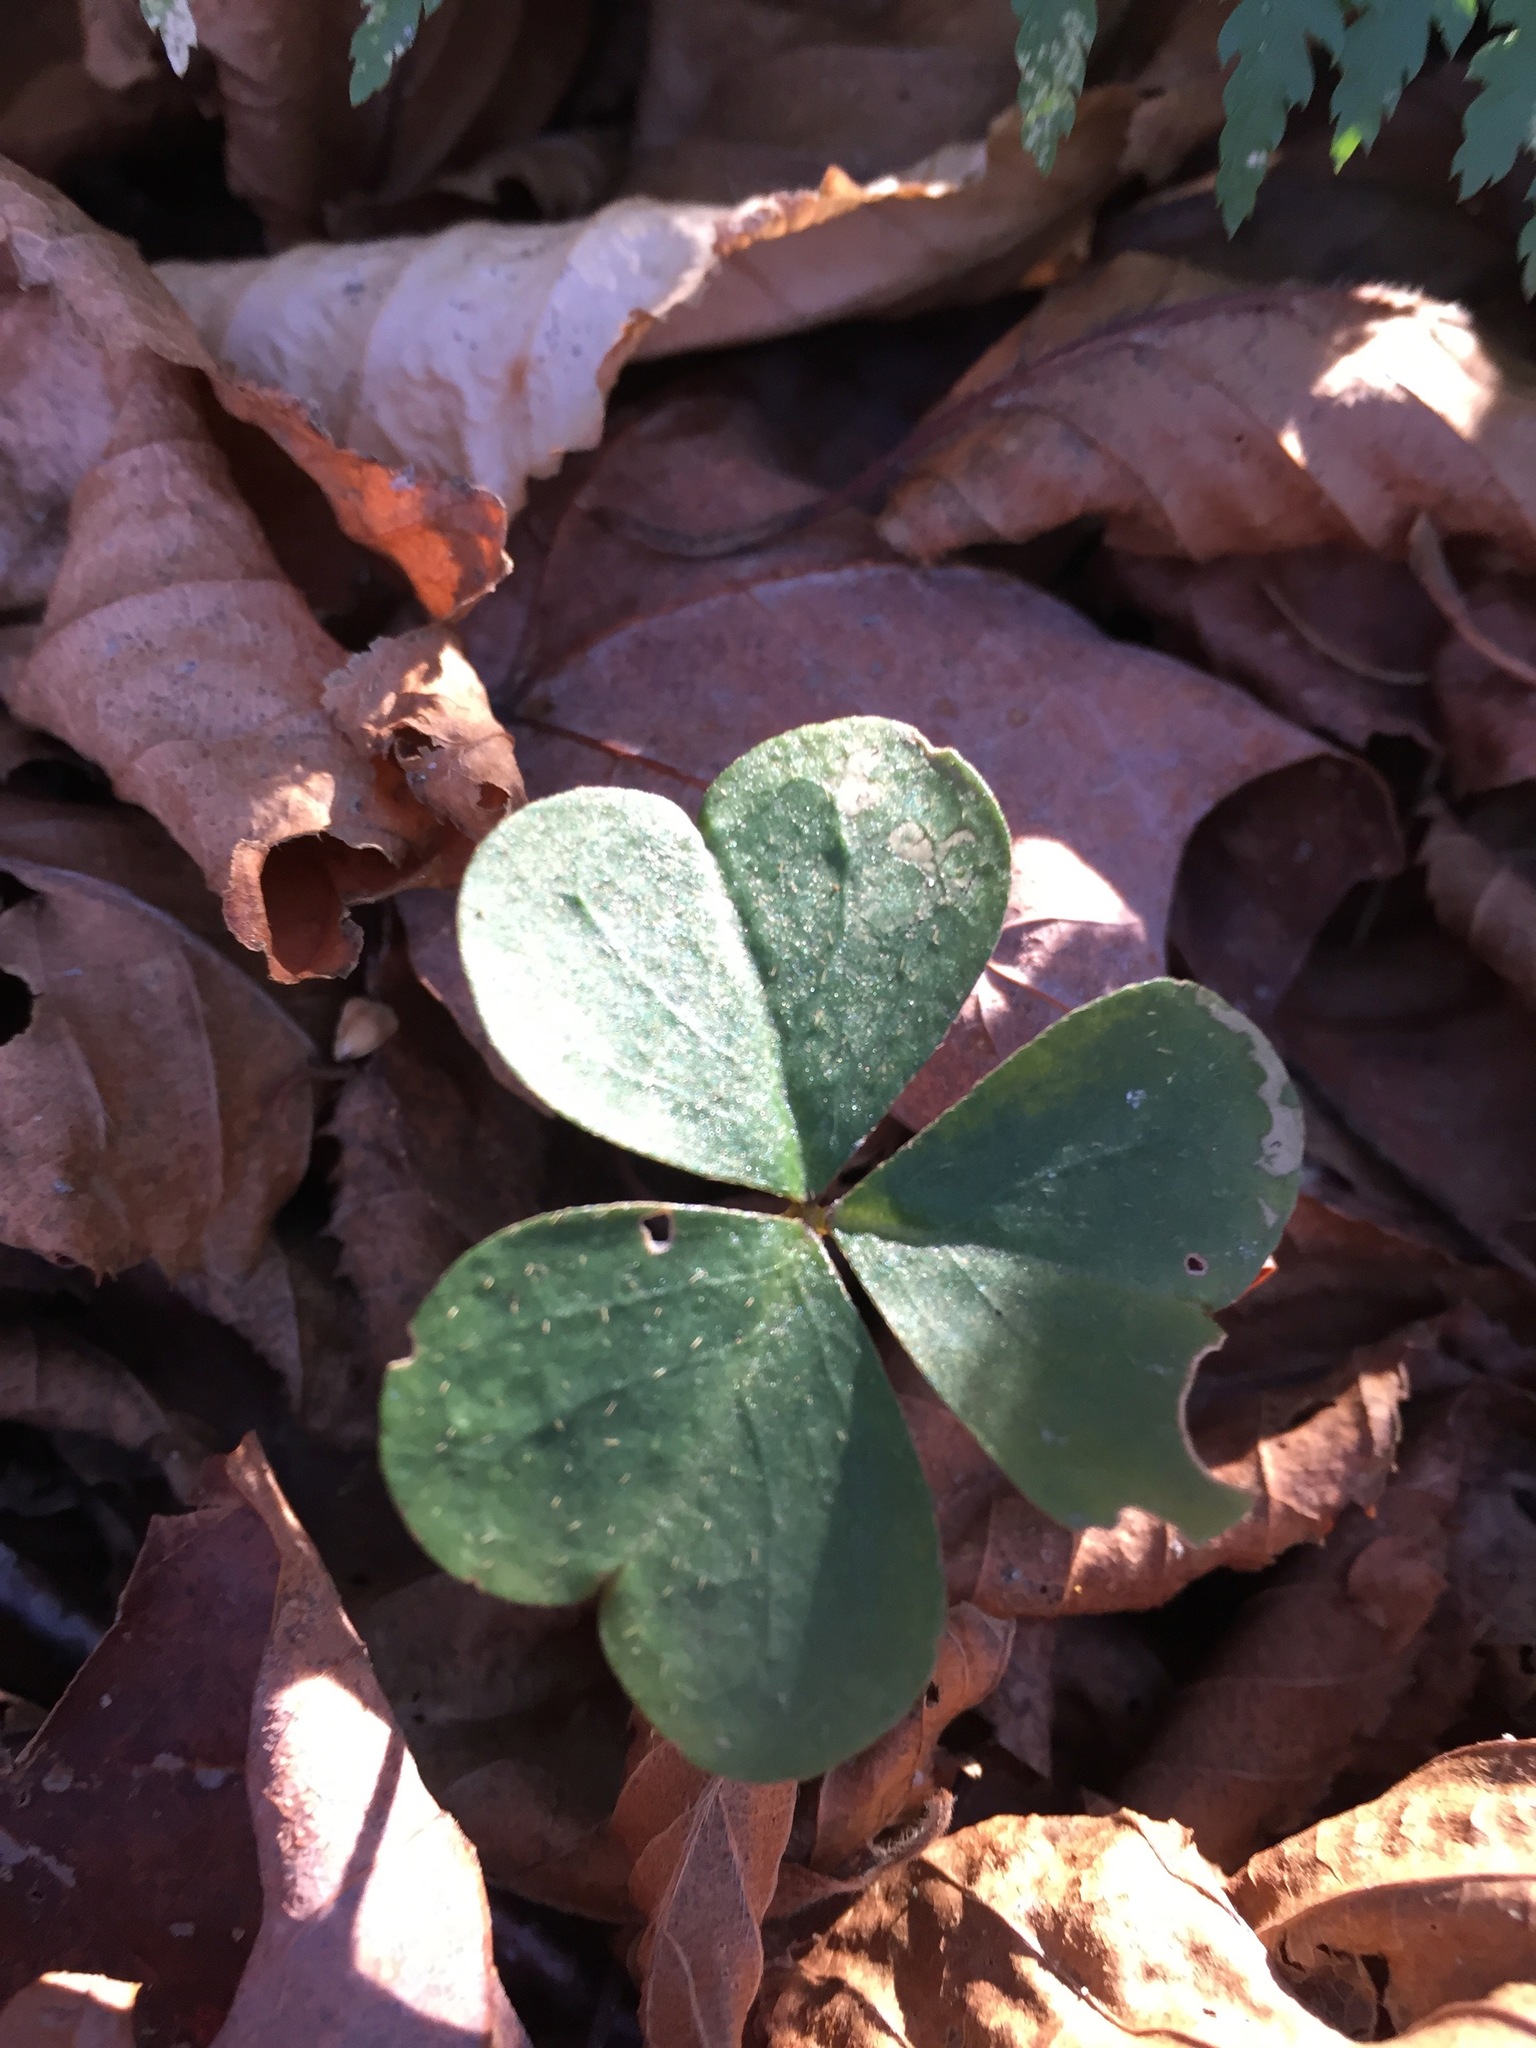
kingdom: Plantae
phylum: Tracheophyta
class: Magnoliopsida
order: Oxalidales
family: Oxalidaceae
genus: Oxalis
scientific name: Oxalis montana
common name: American wood-sorrel
